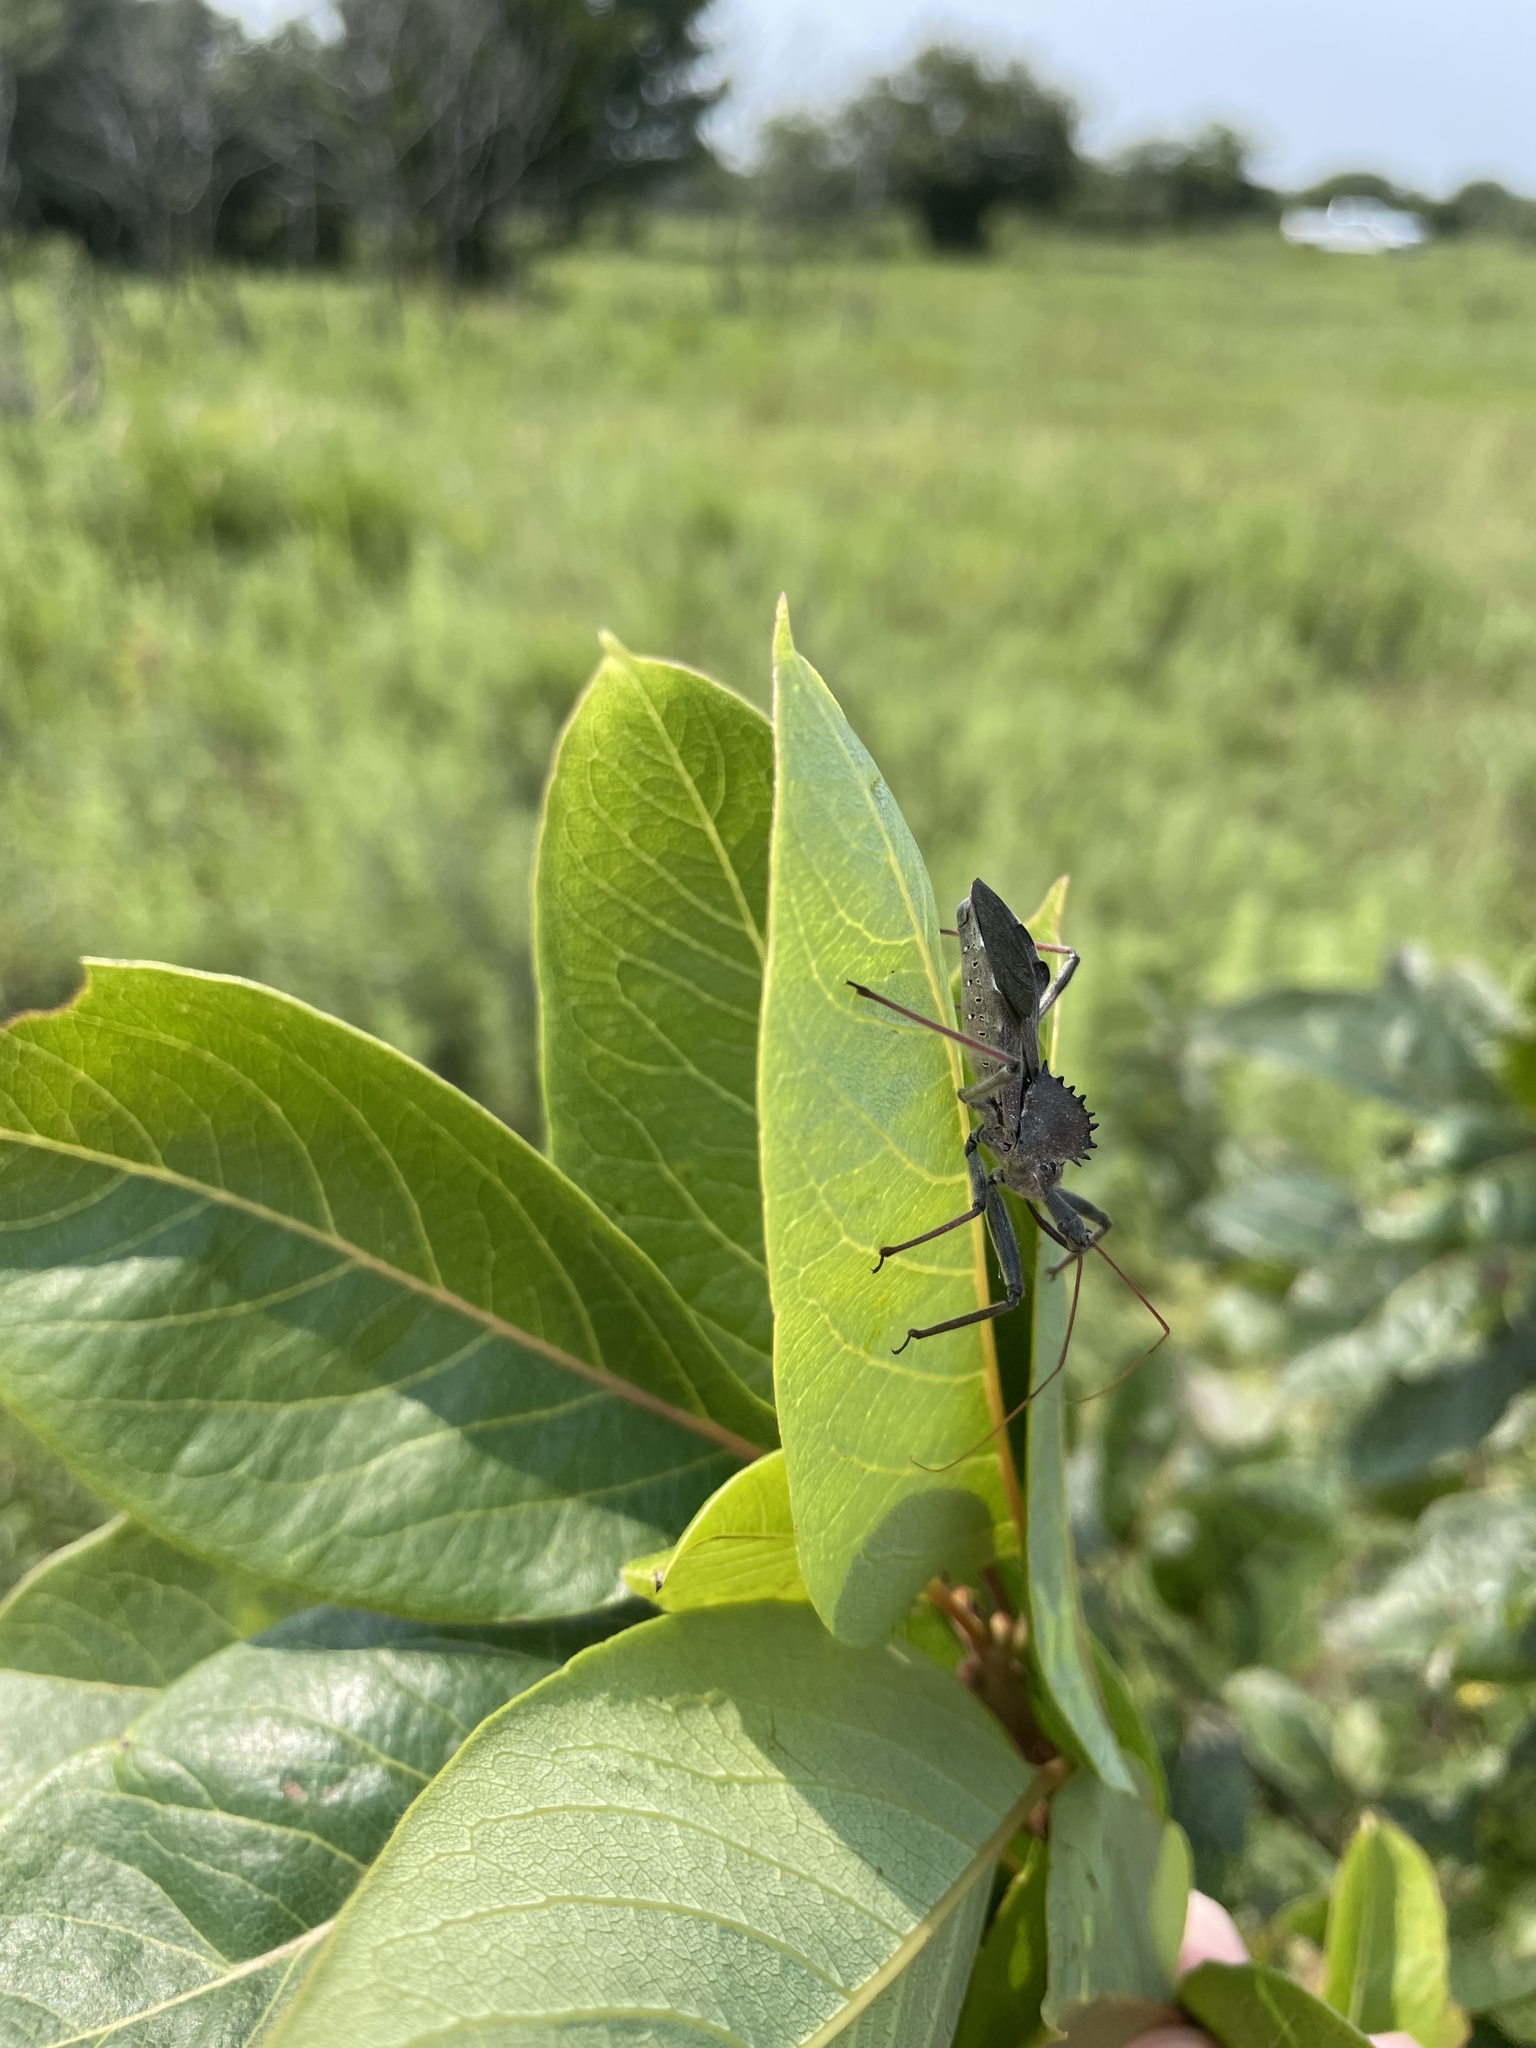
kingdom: Animalia
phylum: Arthropoda
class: Insecta
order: Hemiptera
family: Reduviidae
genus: Arilus
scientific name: Arilus cristatus
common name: North american wheel bug
